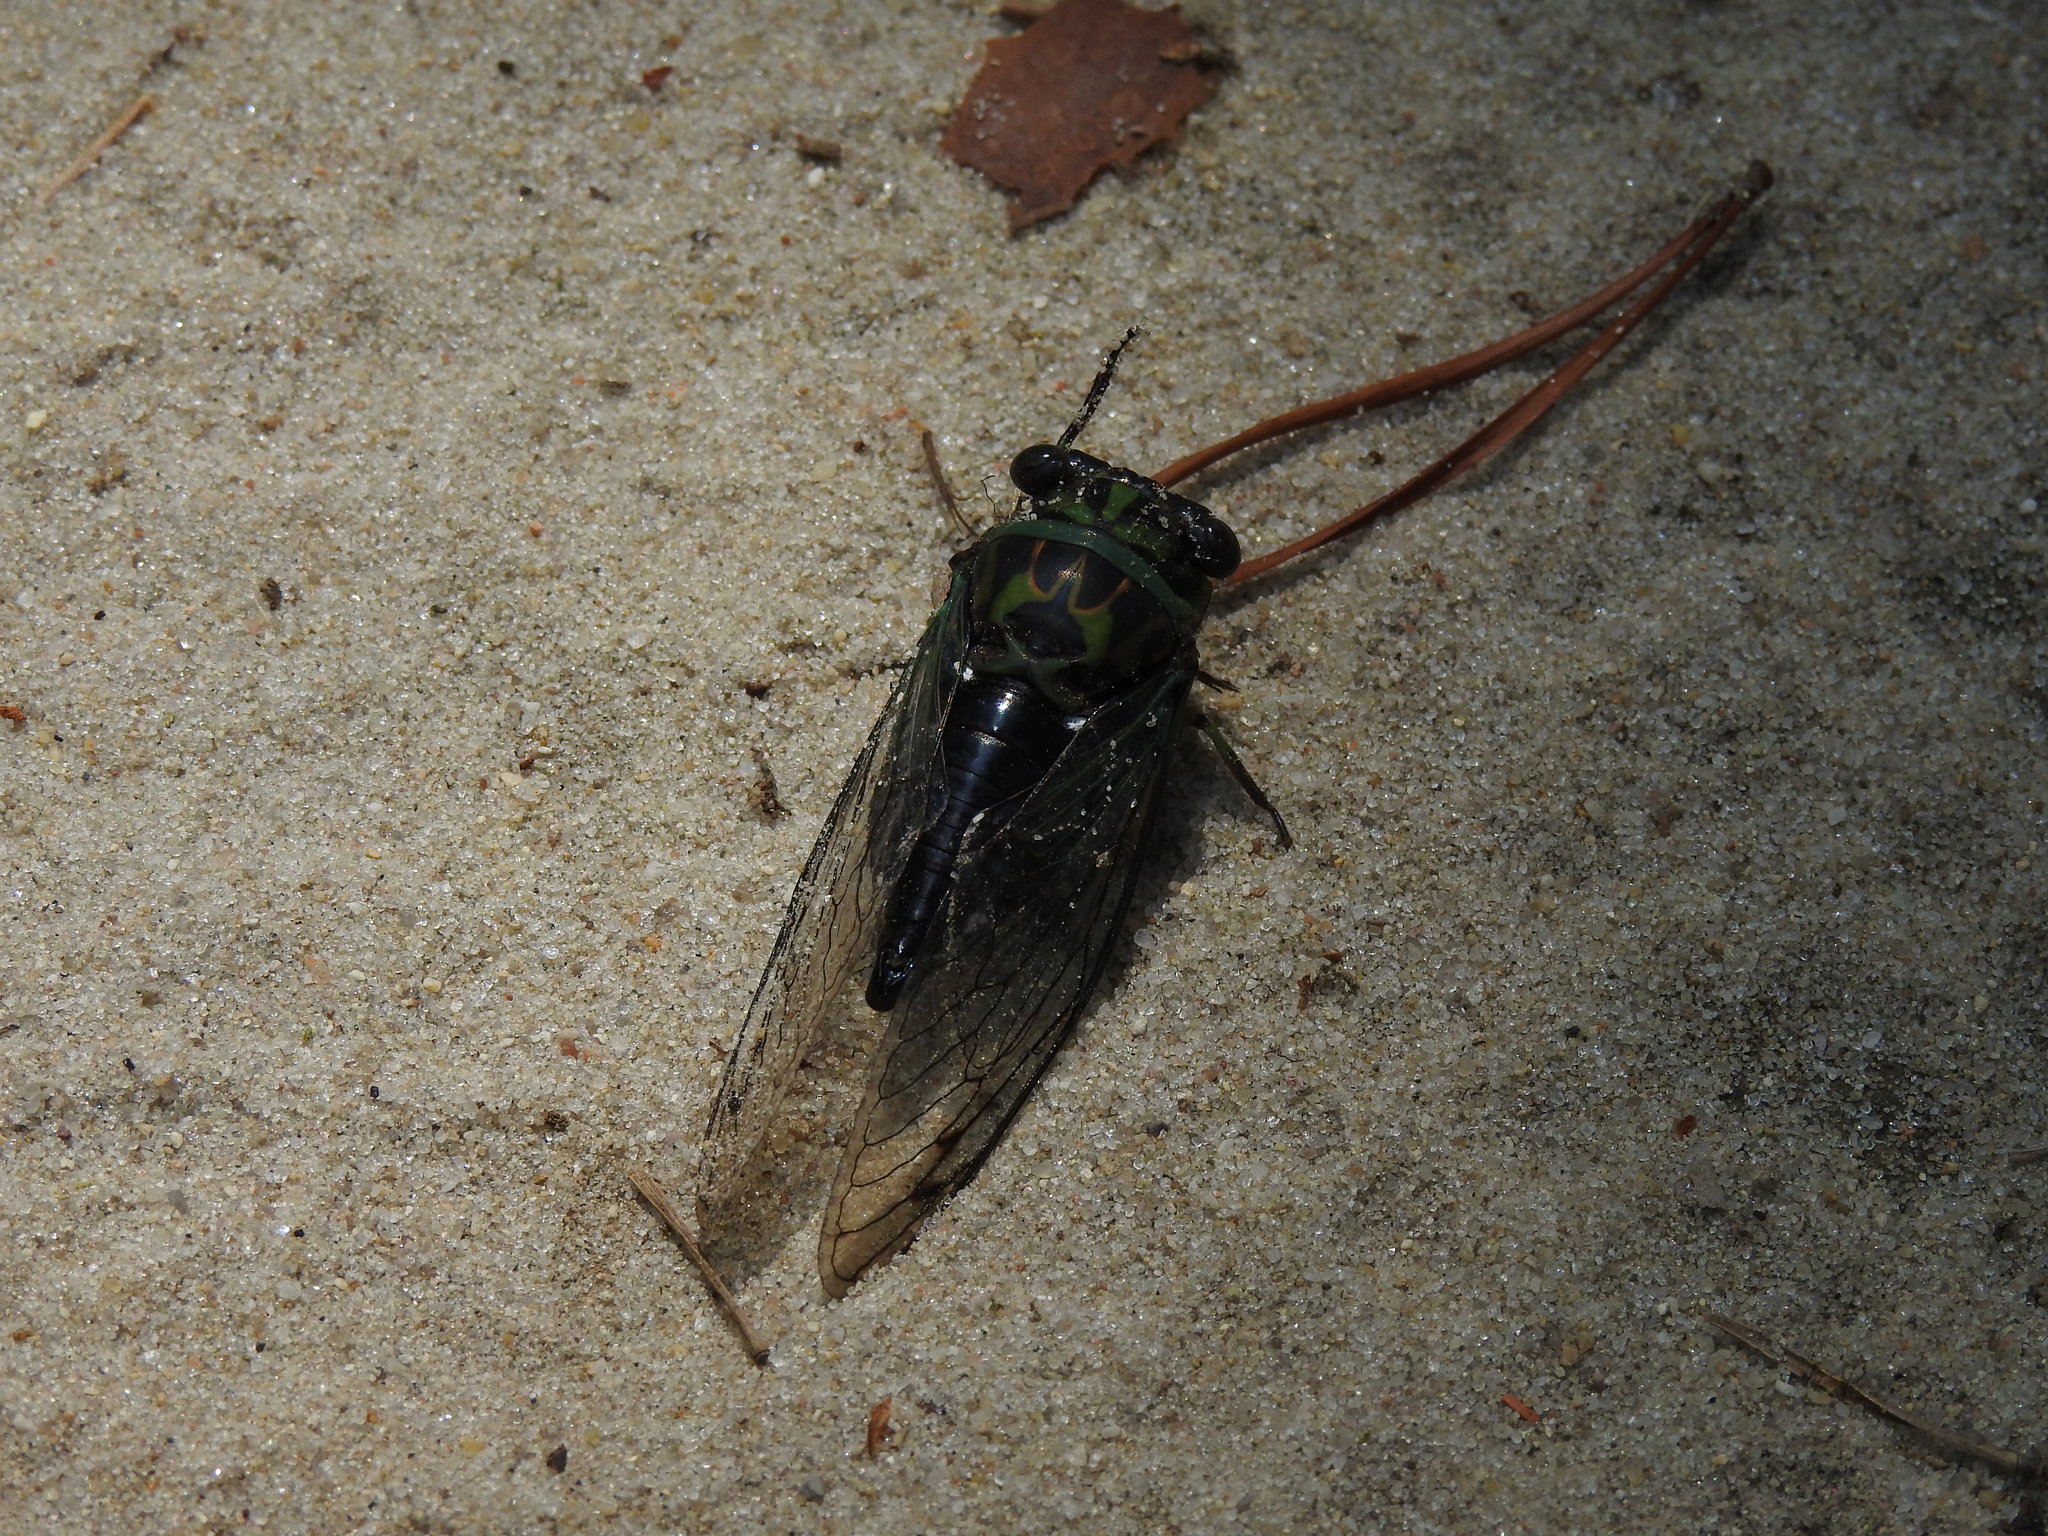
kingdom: Animalia
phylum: Arthropoda
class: Insecta
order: Hemiptera
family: Cicadidae
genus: Neotibicen
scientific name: Neotibicen linnei
